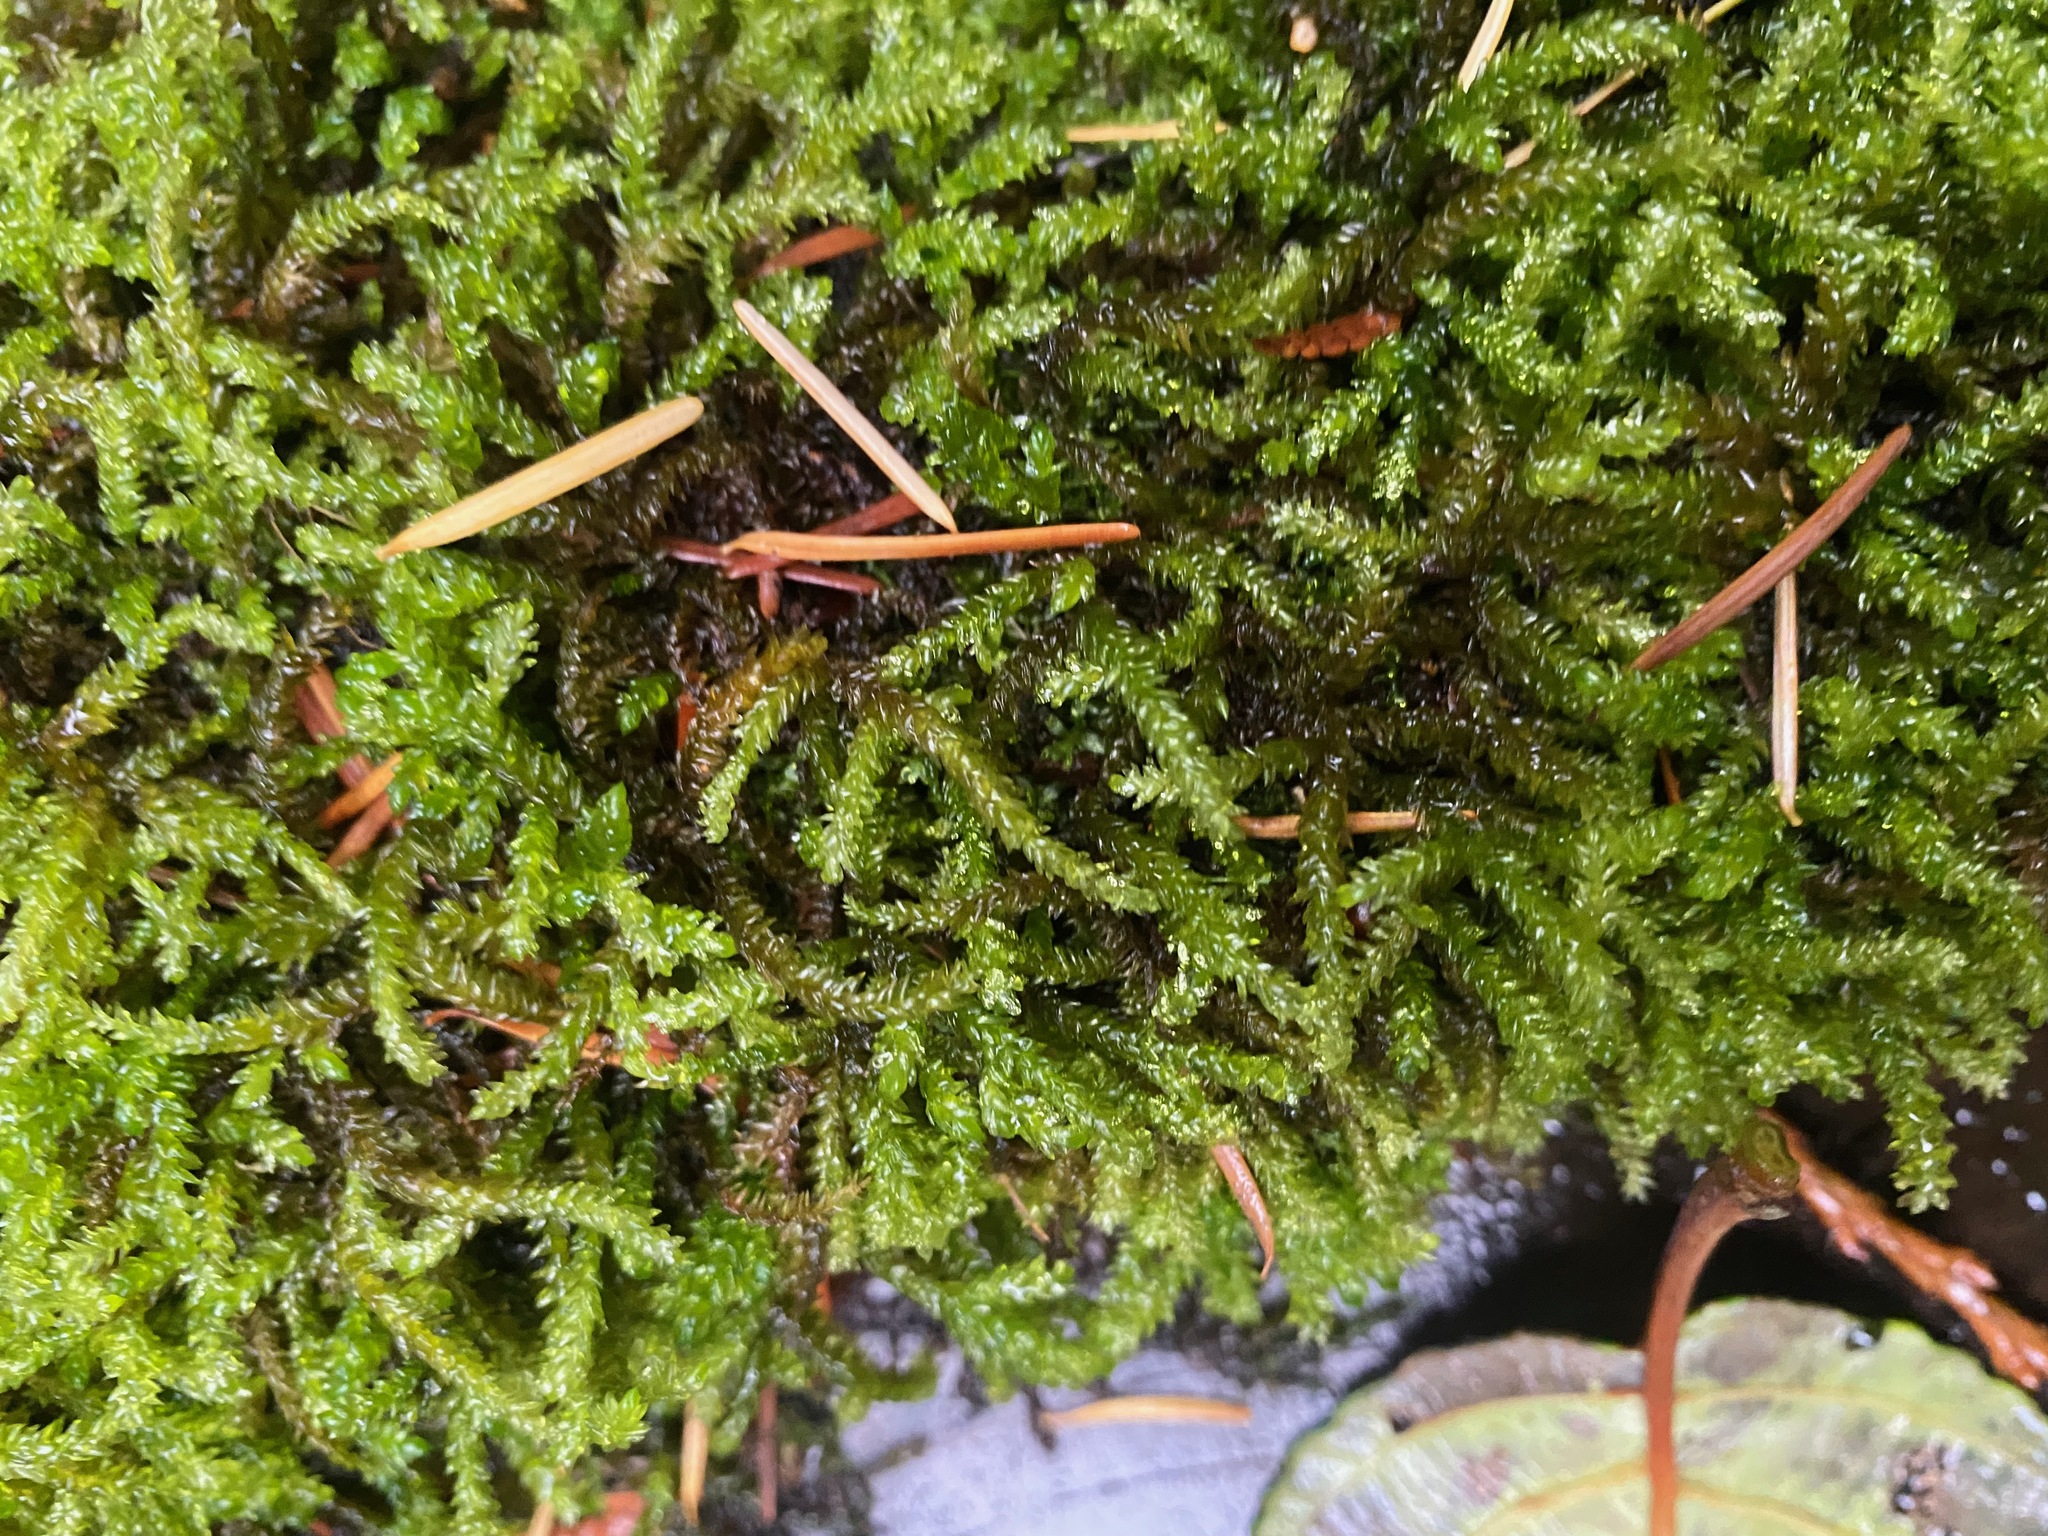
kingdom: Plantae
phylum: Bryophyta
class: Bryopsida
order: Hypnales
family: Brachytheciaceae
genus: Scleropodium
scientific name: Scleropodium obtusifolium
